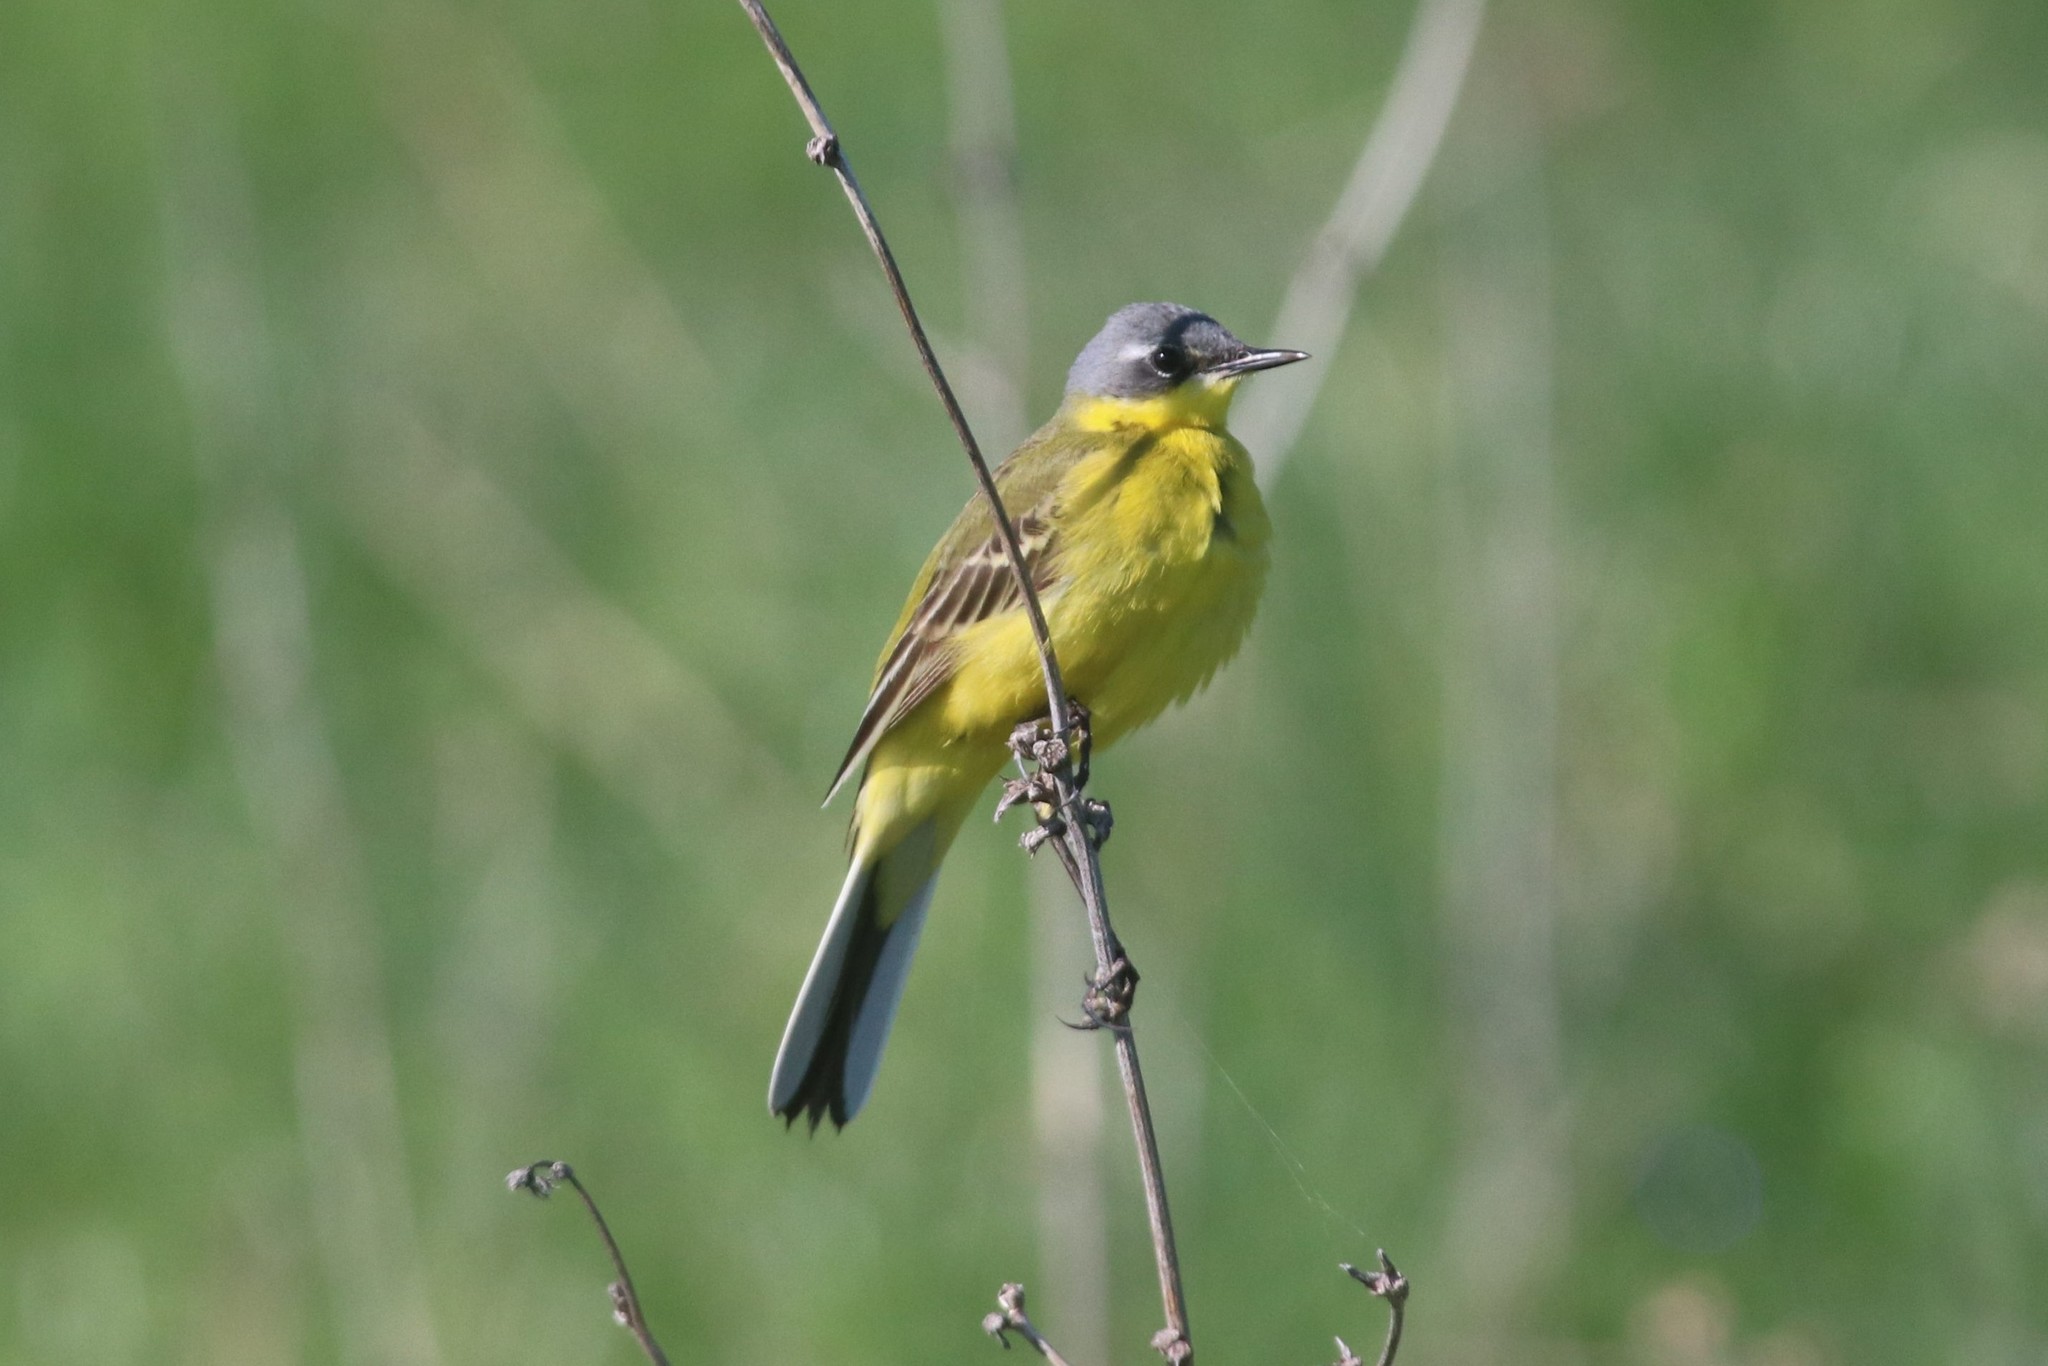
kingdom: Animalia
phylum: Chordata
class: Aves
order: Passeriformes
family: Motacillidae
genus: Motacilla
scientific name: Motacilla flava
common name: Western yellow wagtail
